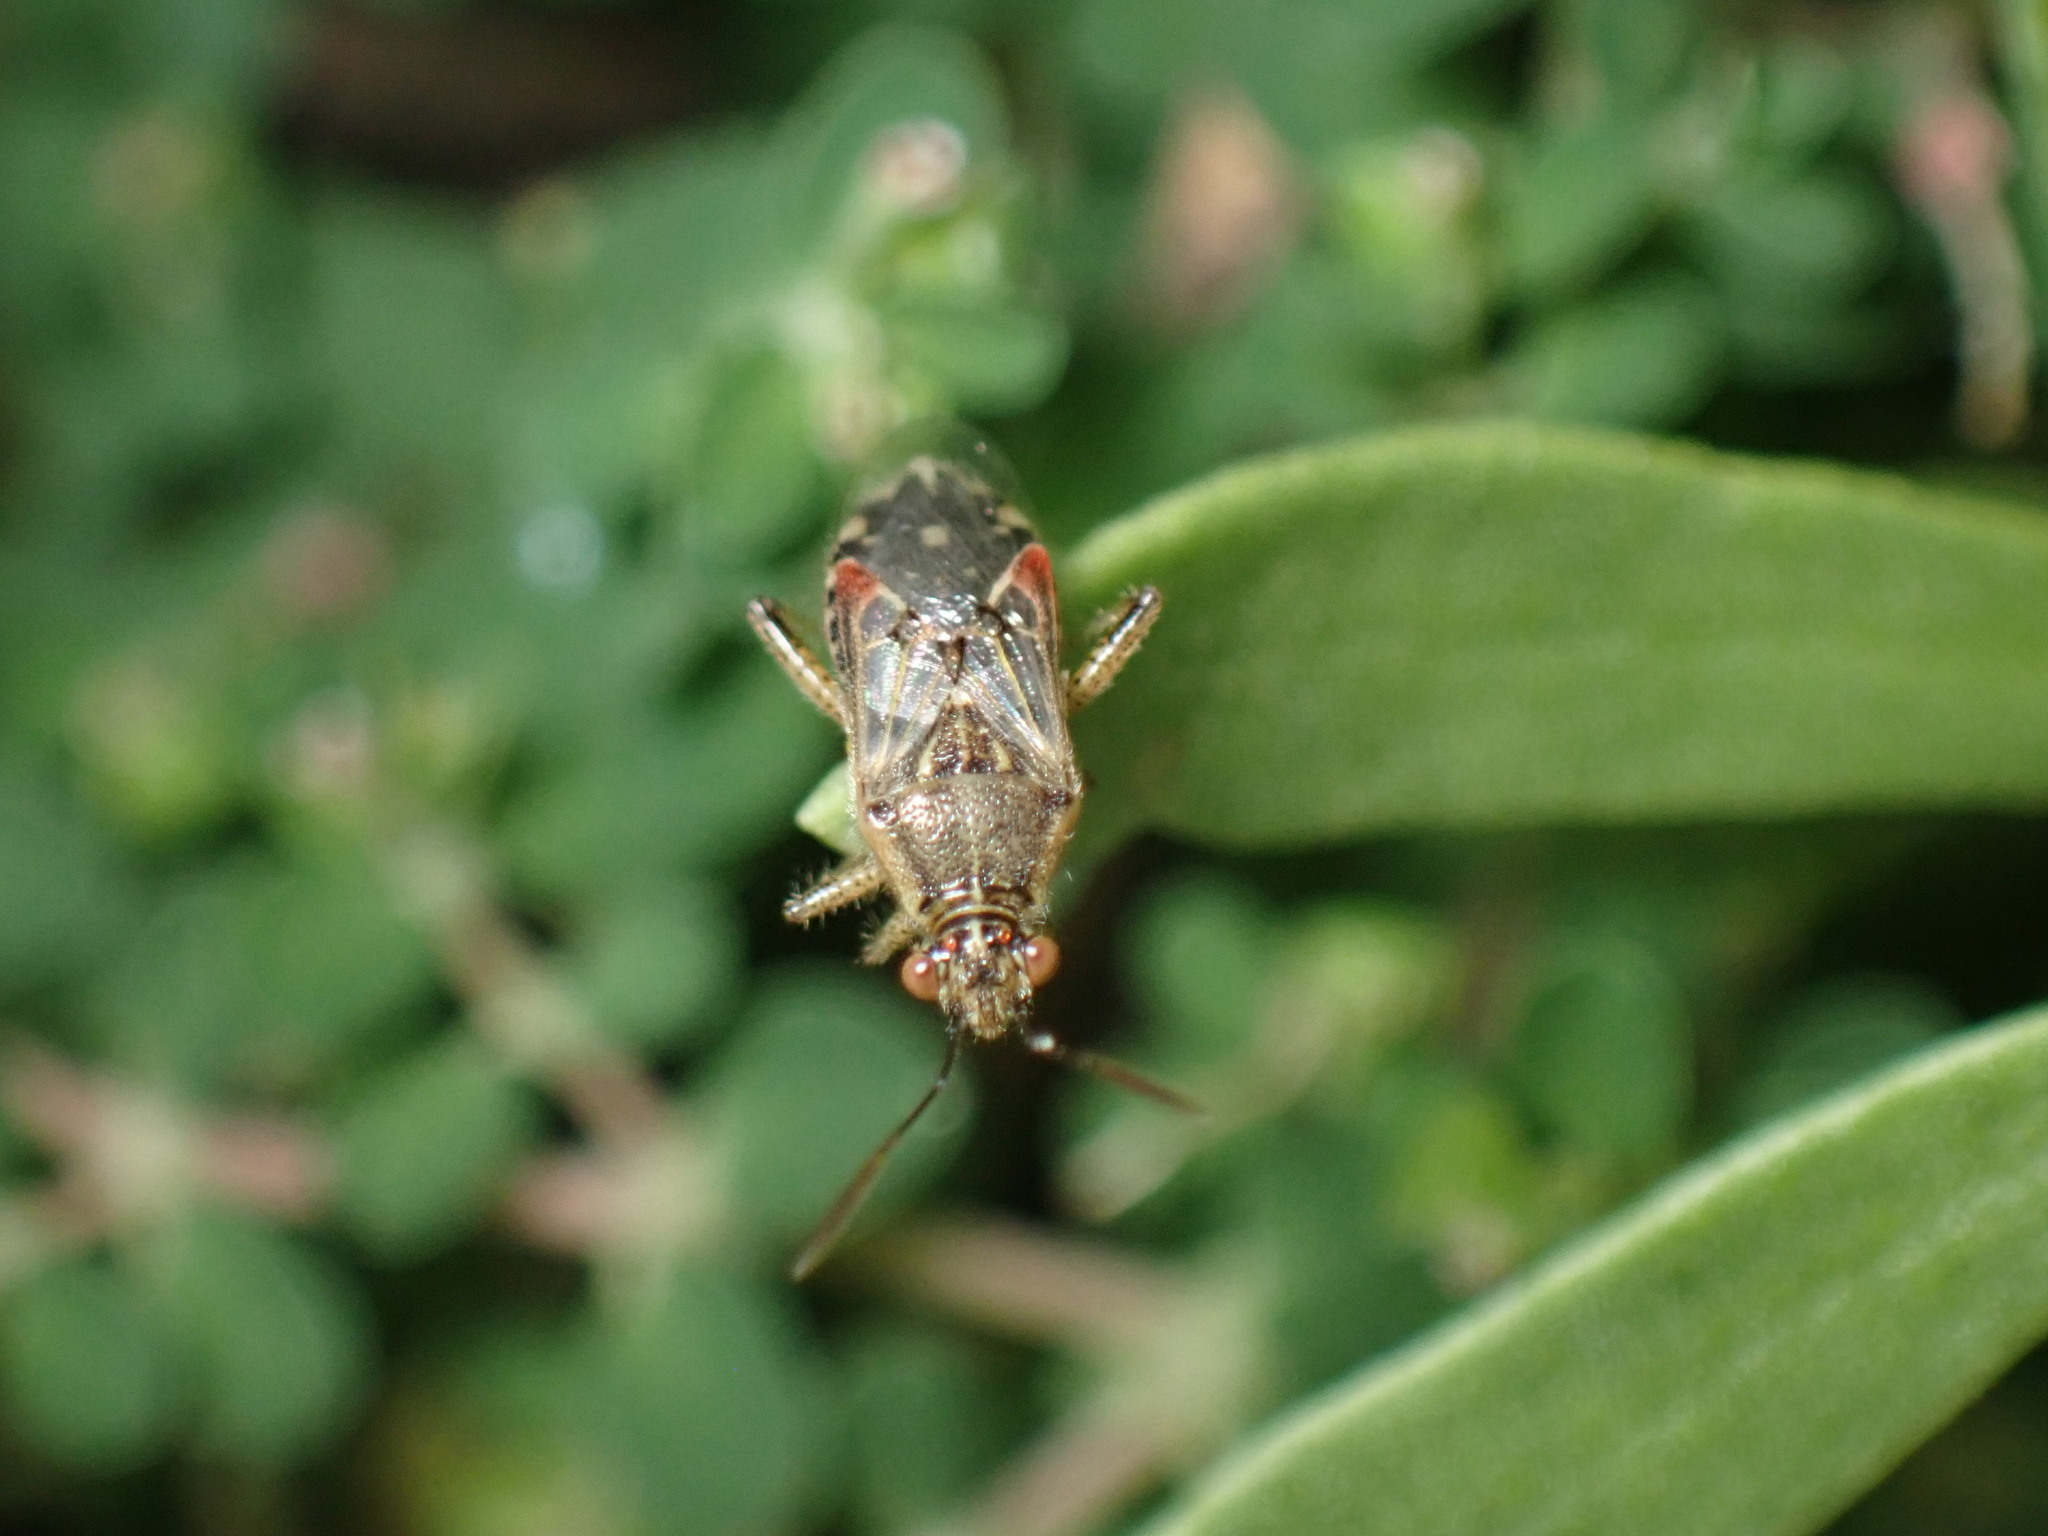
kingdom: Animalia
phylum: Arthropoda
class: Insecta
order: Hemiptera
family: Rhopalidae
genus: Liorhyssus
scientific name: Liorhyssus hyalinus
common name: Scentless plant bug
